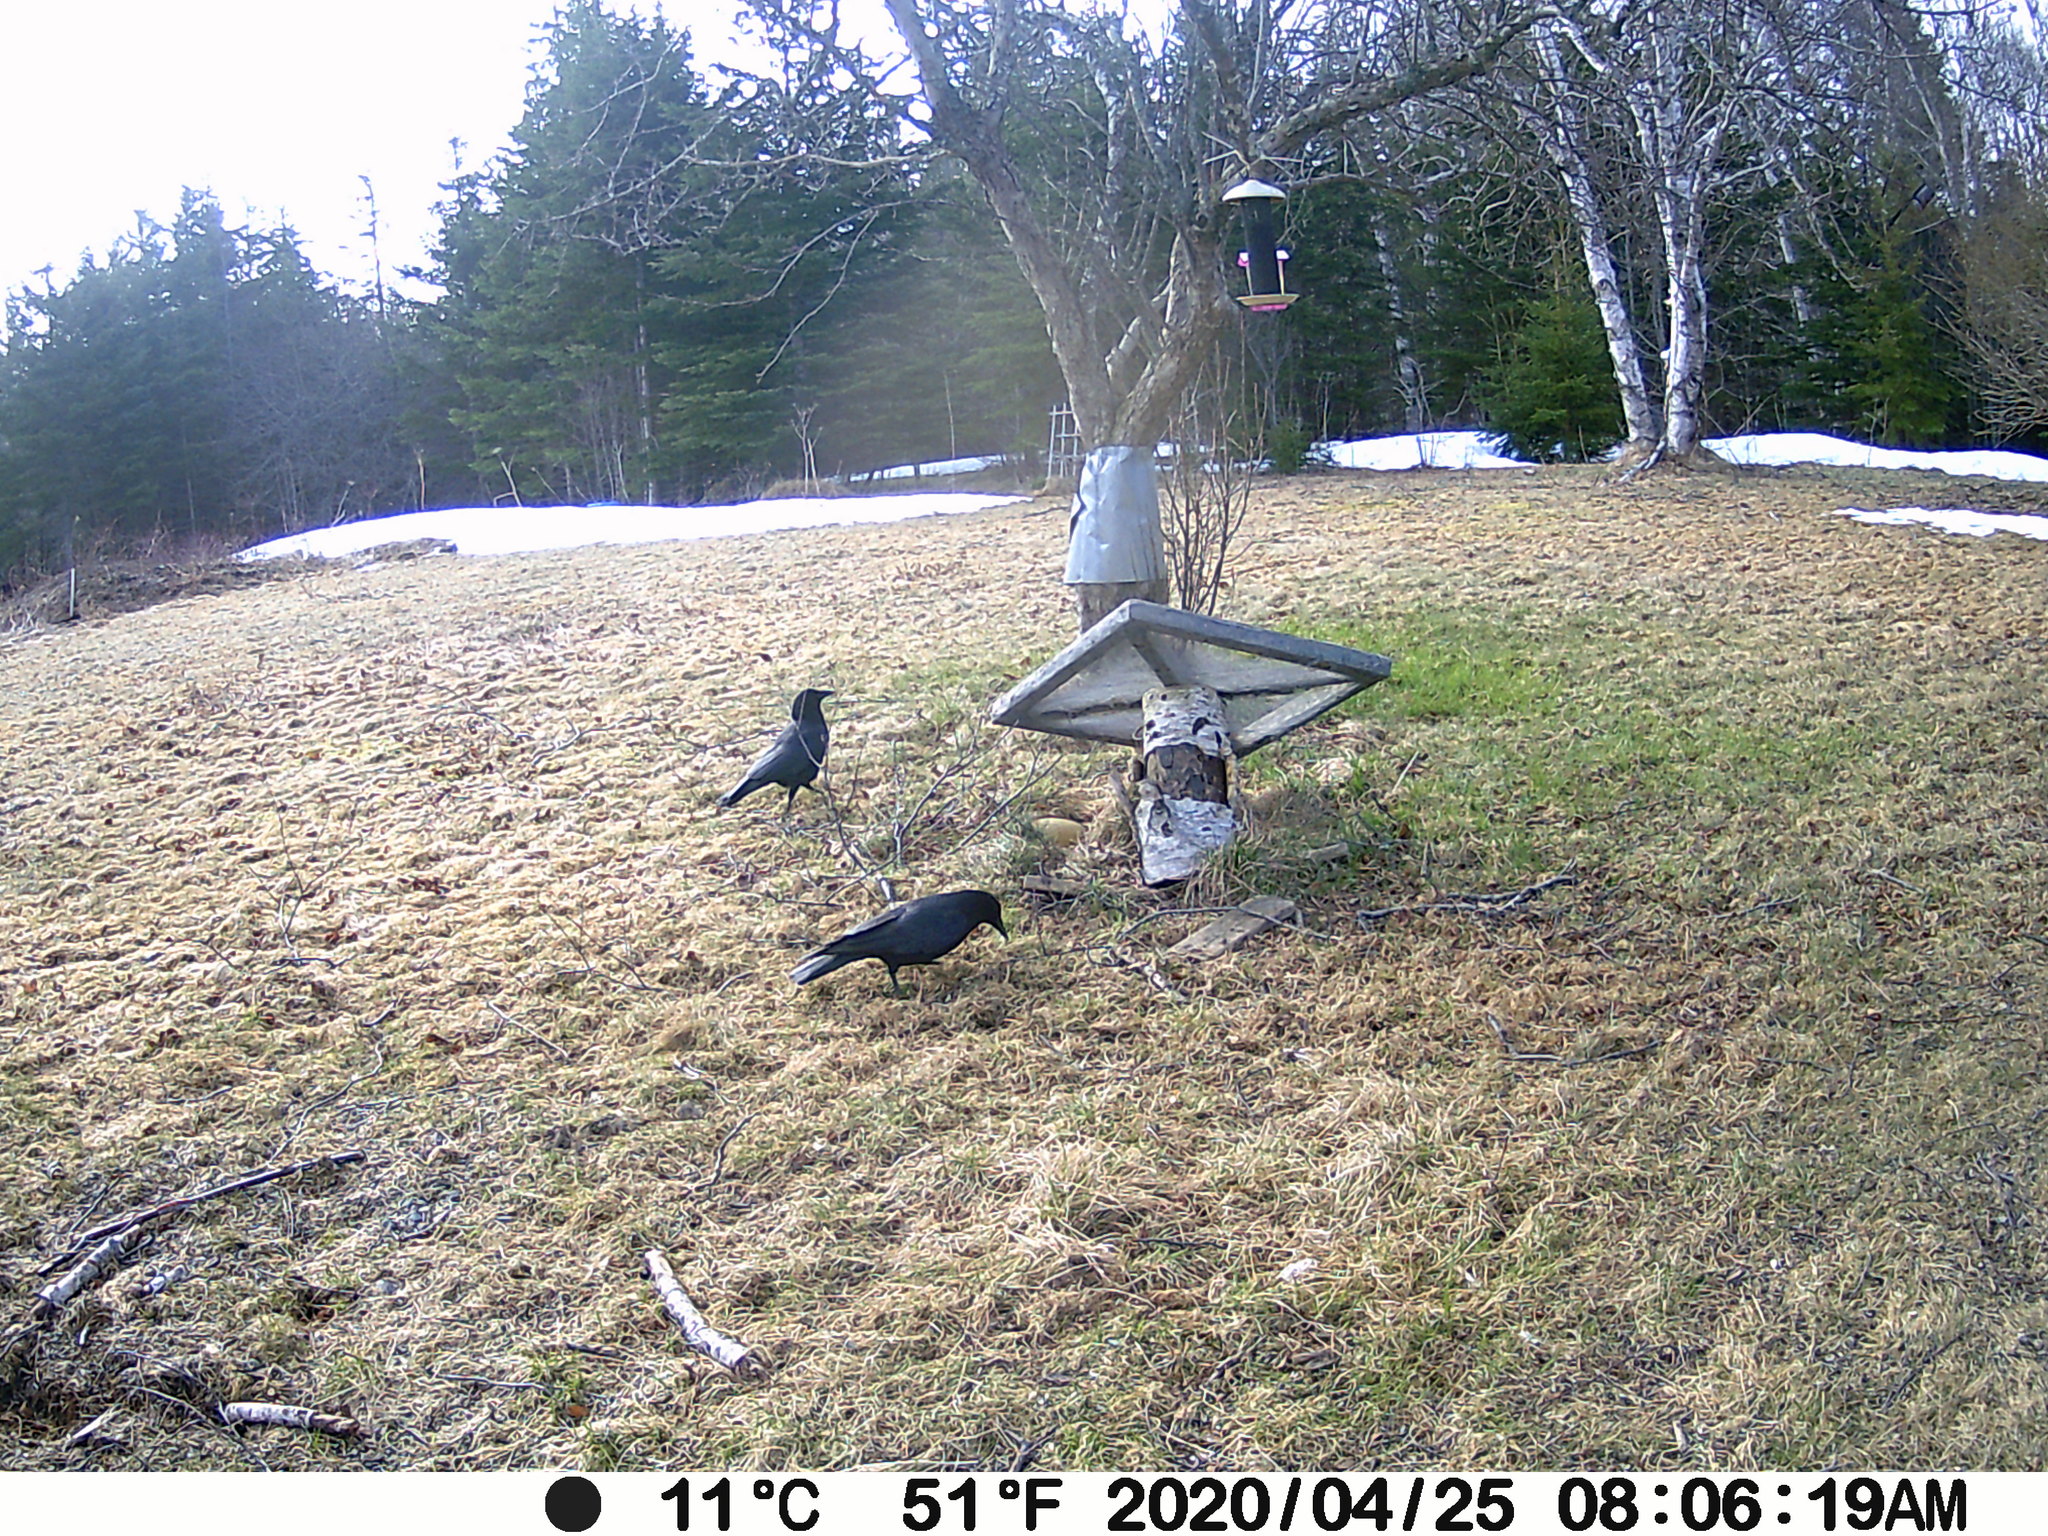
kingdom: Animalia
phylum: Chordata
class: Aves
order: Passeriformes
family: Corvidae
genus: Corvus
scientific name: Corvus brachyrhynchos
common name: American crow
